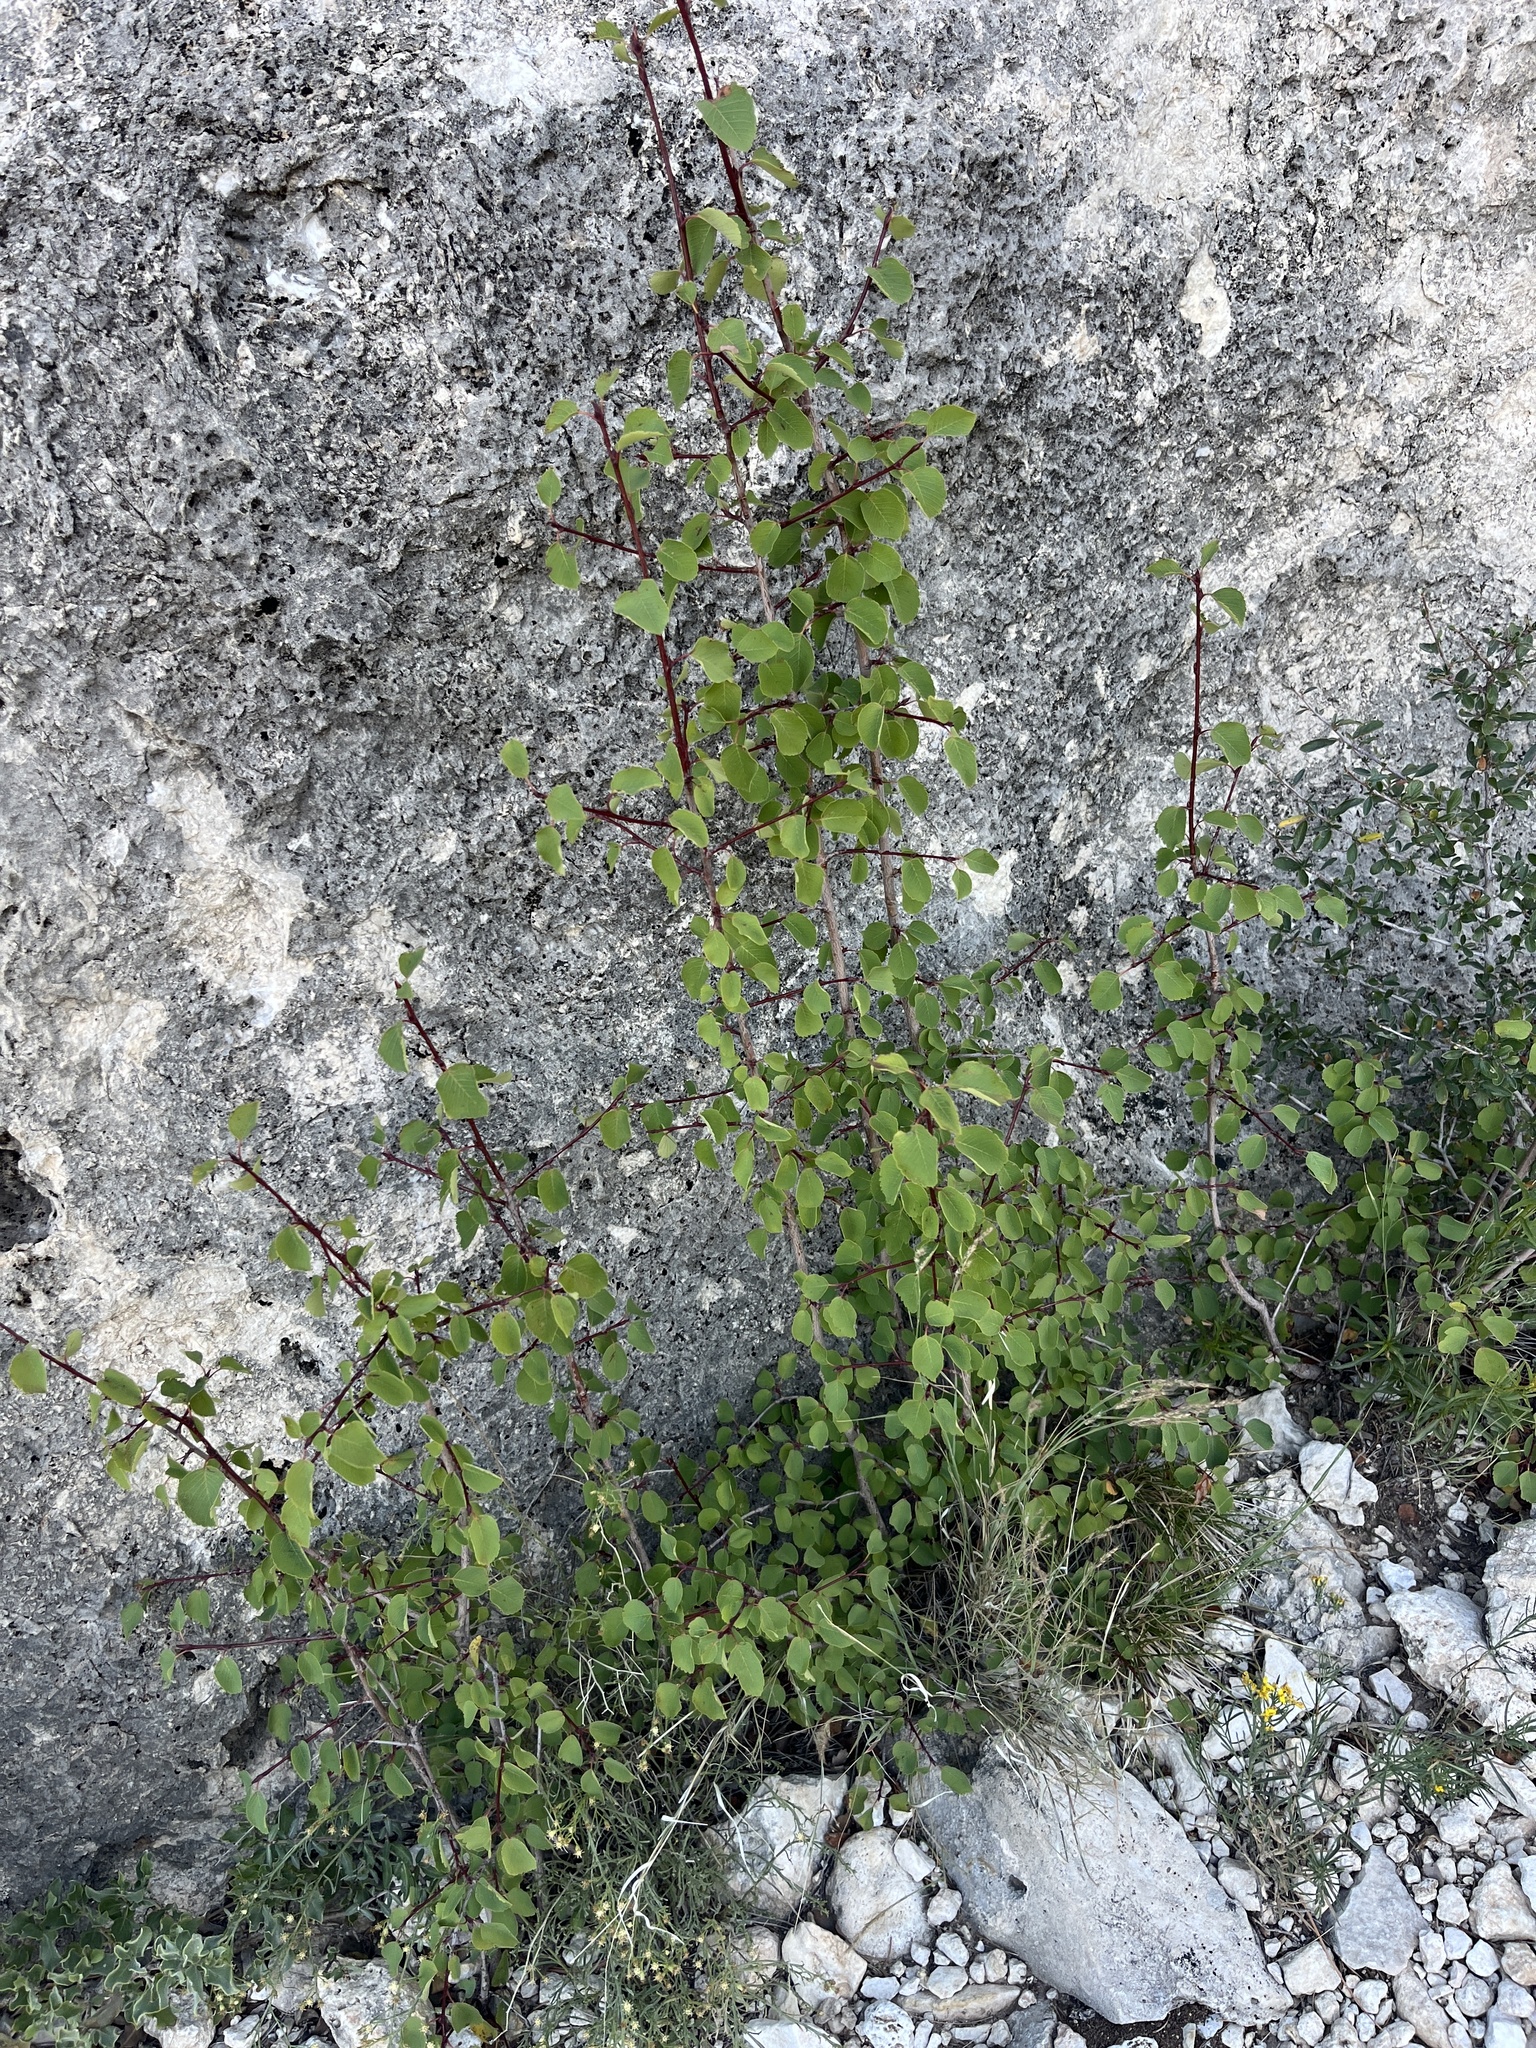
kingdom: Plantae
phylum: Tracheophyta
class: Magnoliopsida
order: Rosales
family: Rosaceae
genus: Amelanchier
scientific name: Amelanchier utahensis
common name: Utah serviceberry
